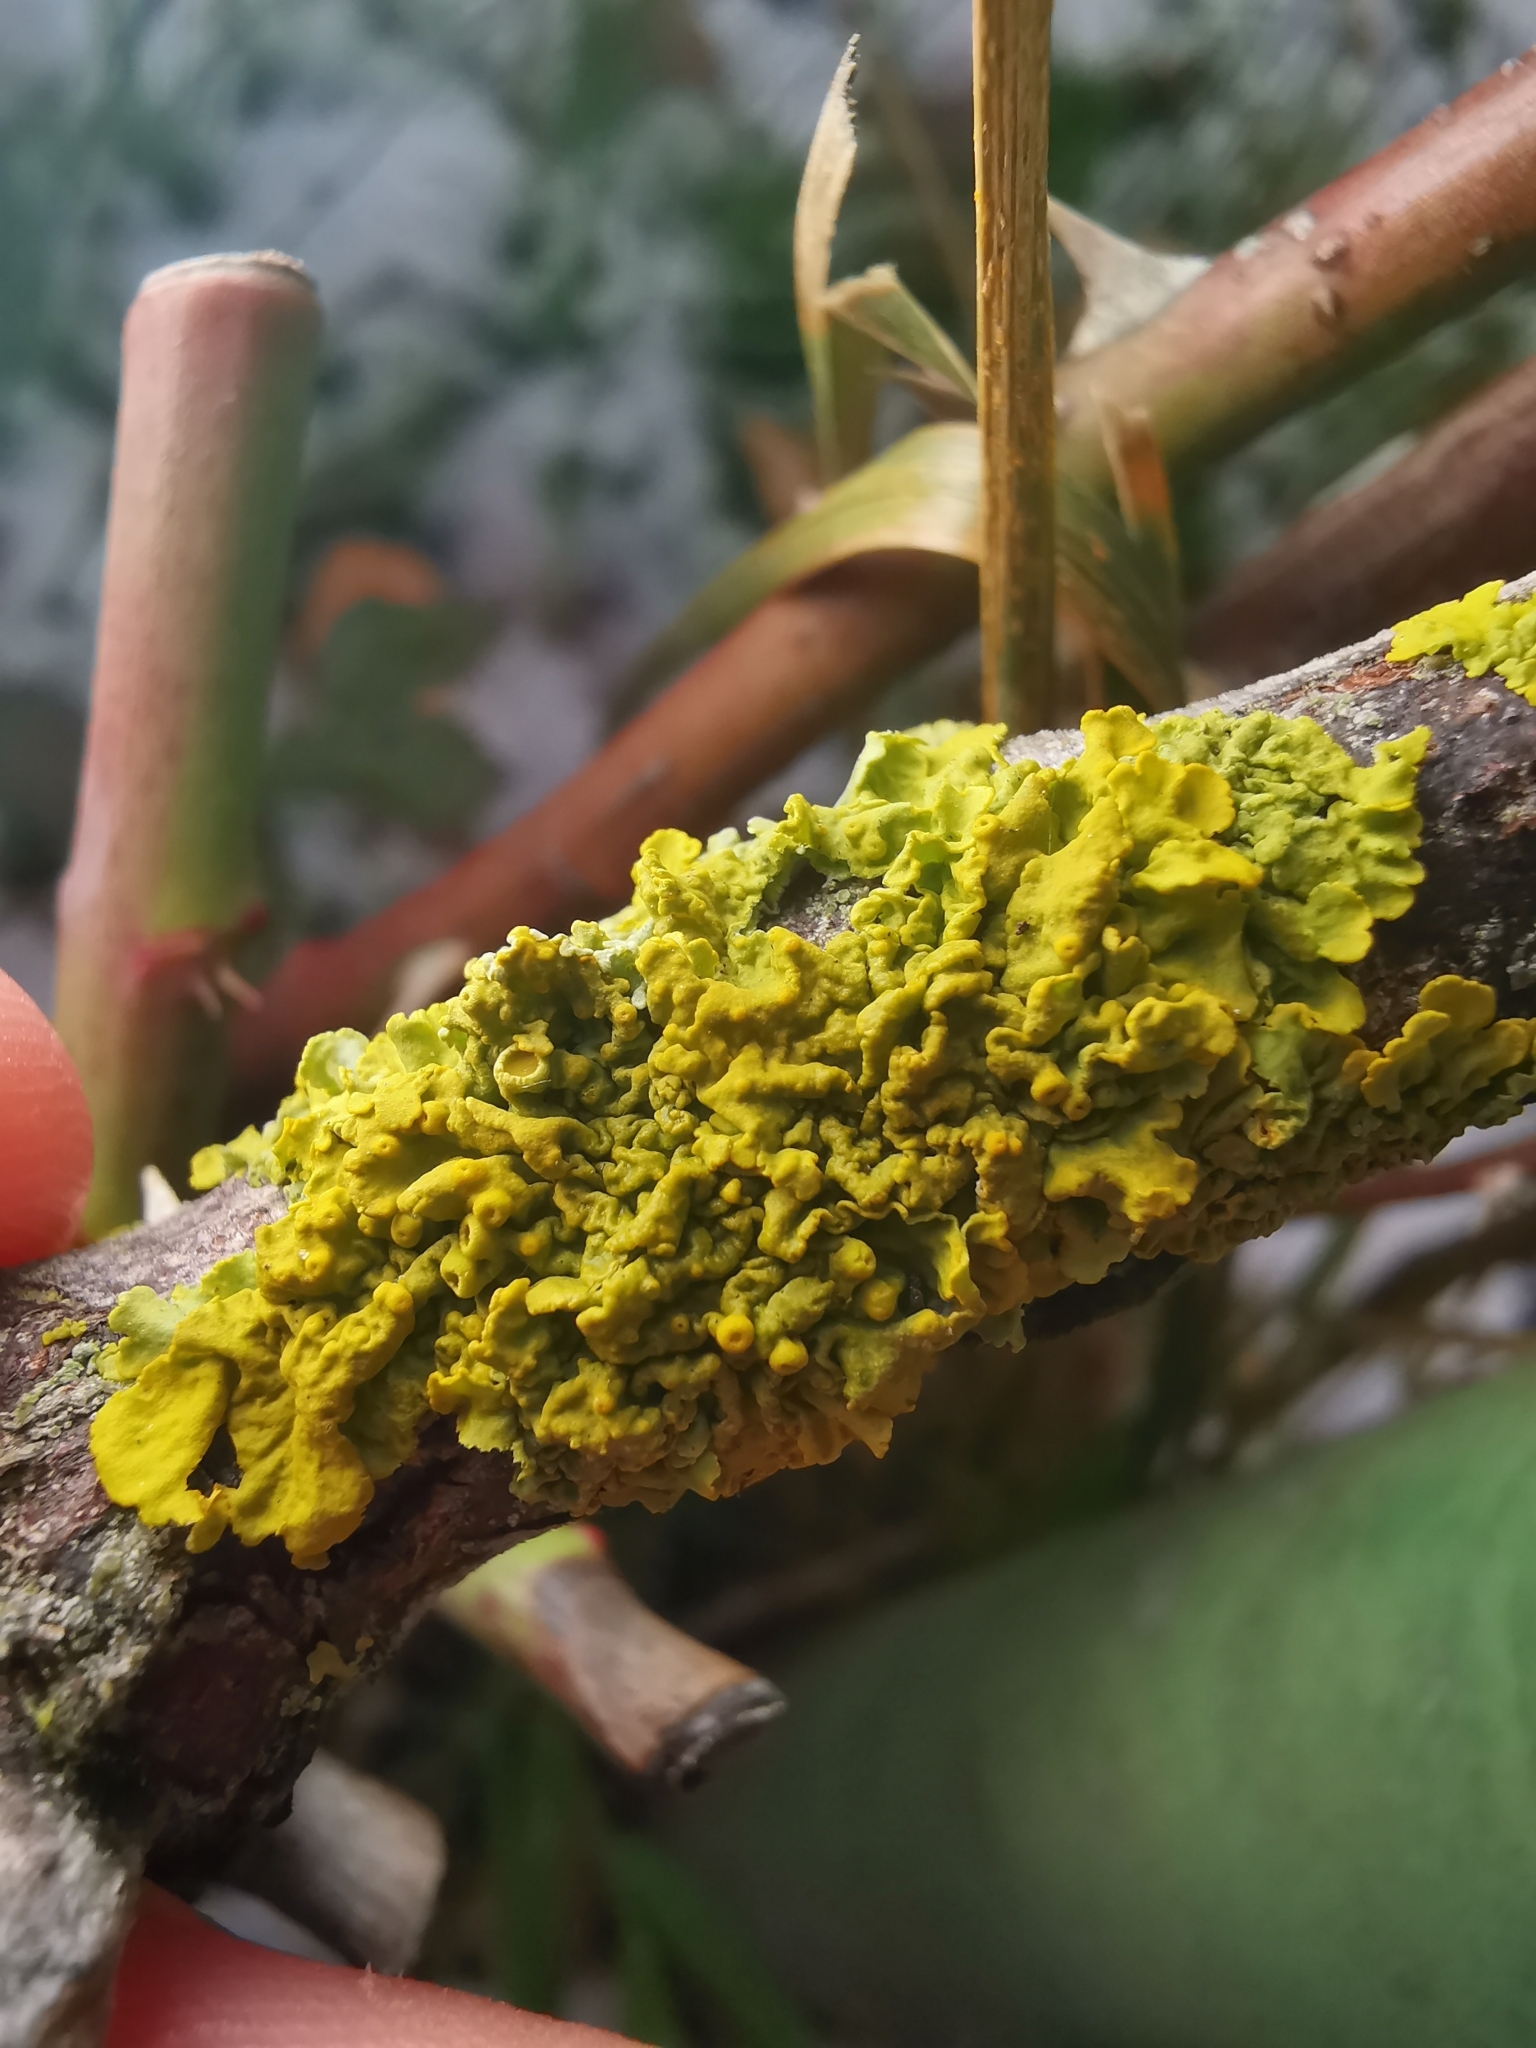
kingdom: Fungi
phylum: Ascomycota
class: Lecanoromycetes
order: Teloschistales
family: Teloschistaceae
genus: Xanthoria
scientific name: Xanthoria parietina
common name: Common orange lichen
